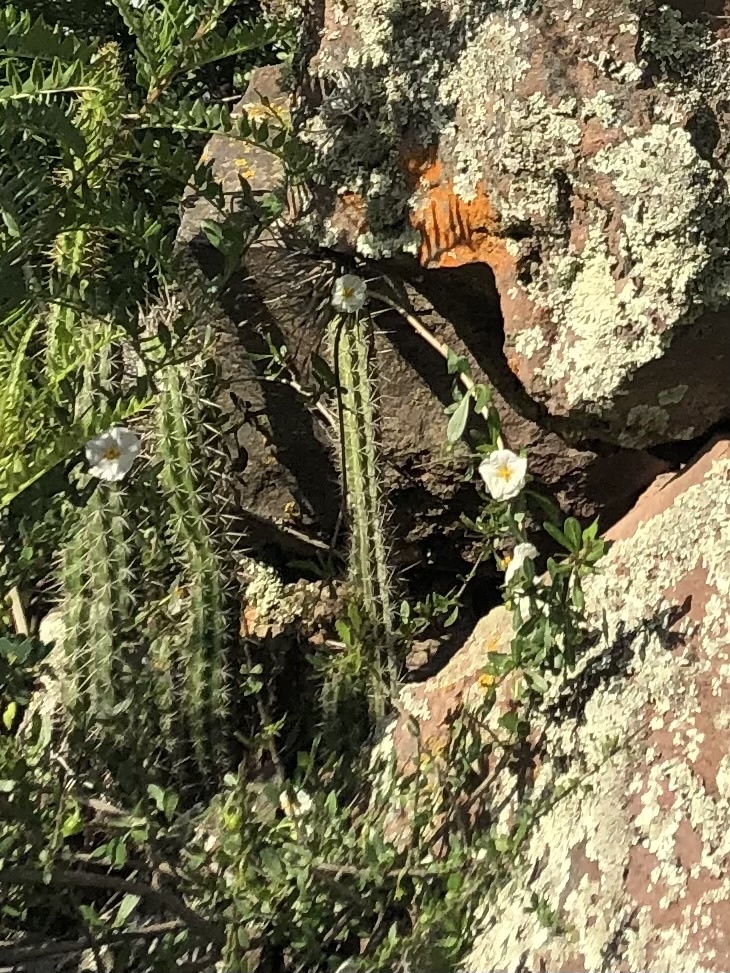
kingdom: Plantae
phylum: Tracheophyta
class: Magnoliopsida
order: Solanales
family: Solanaceae
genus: Lycianthes
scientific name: Lycianthes lycioides
